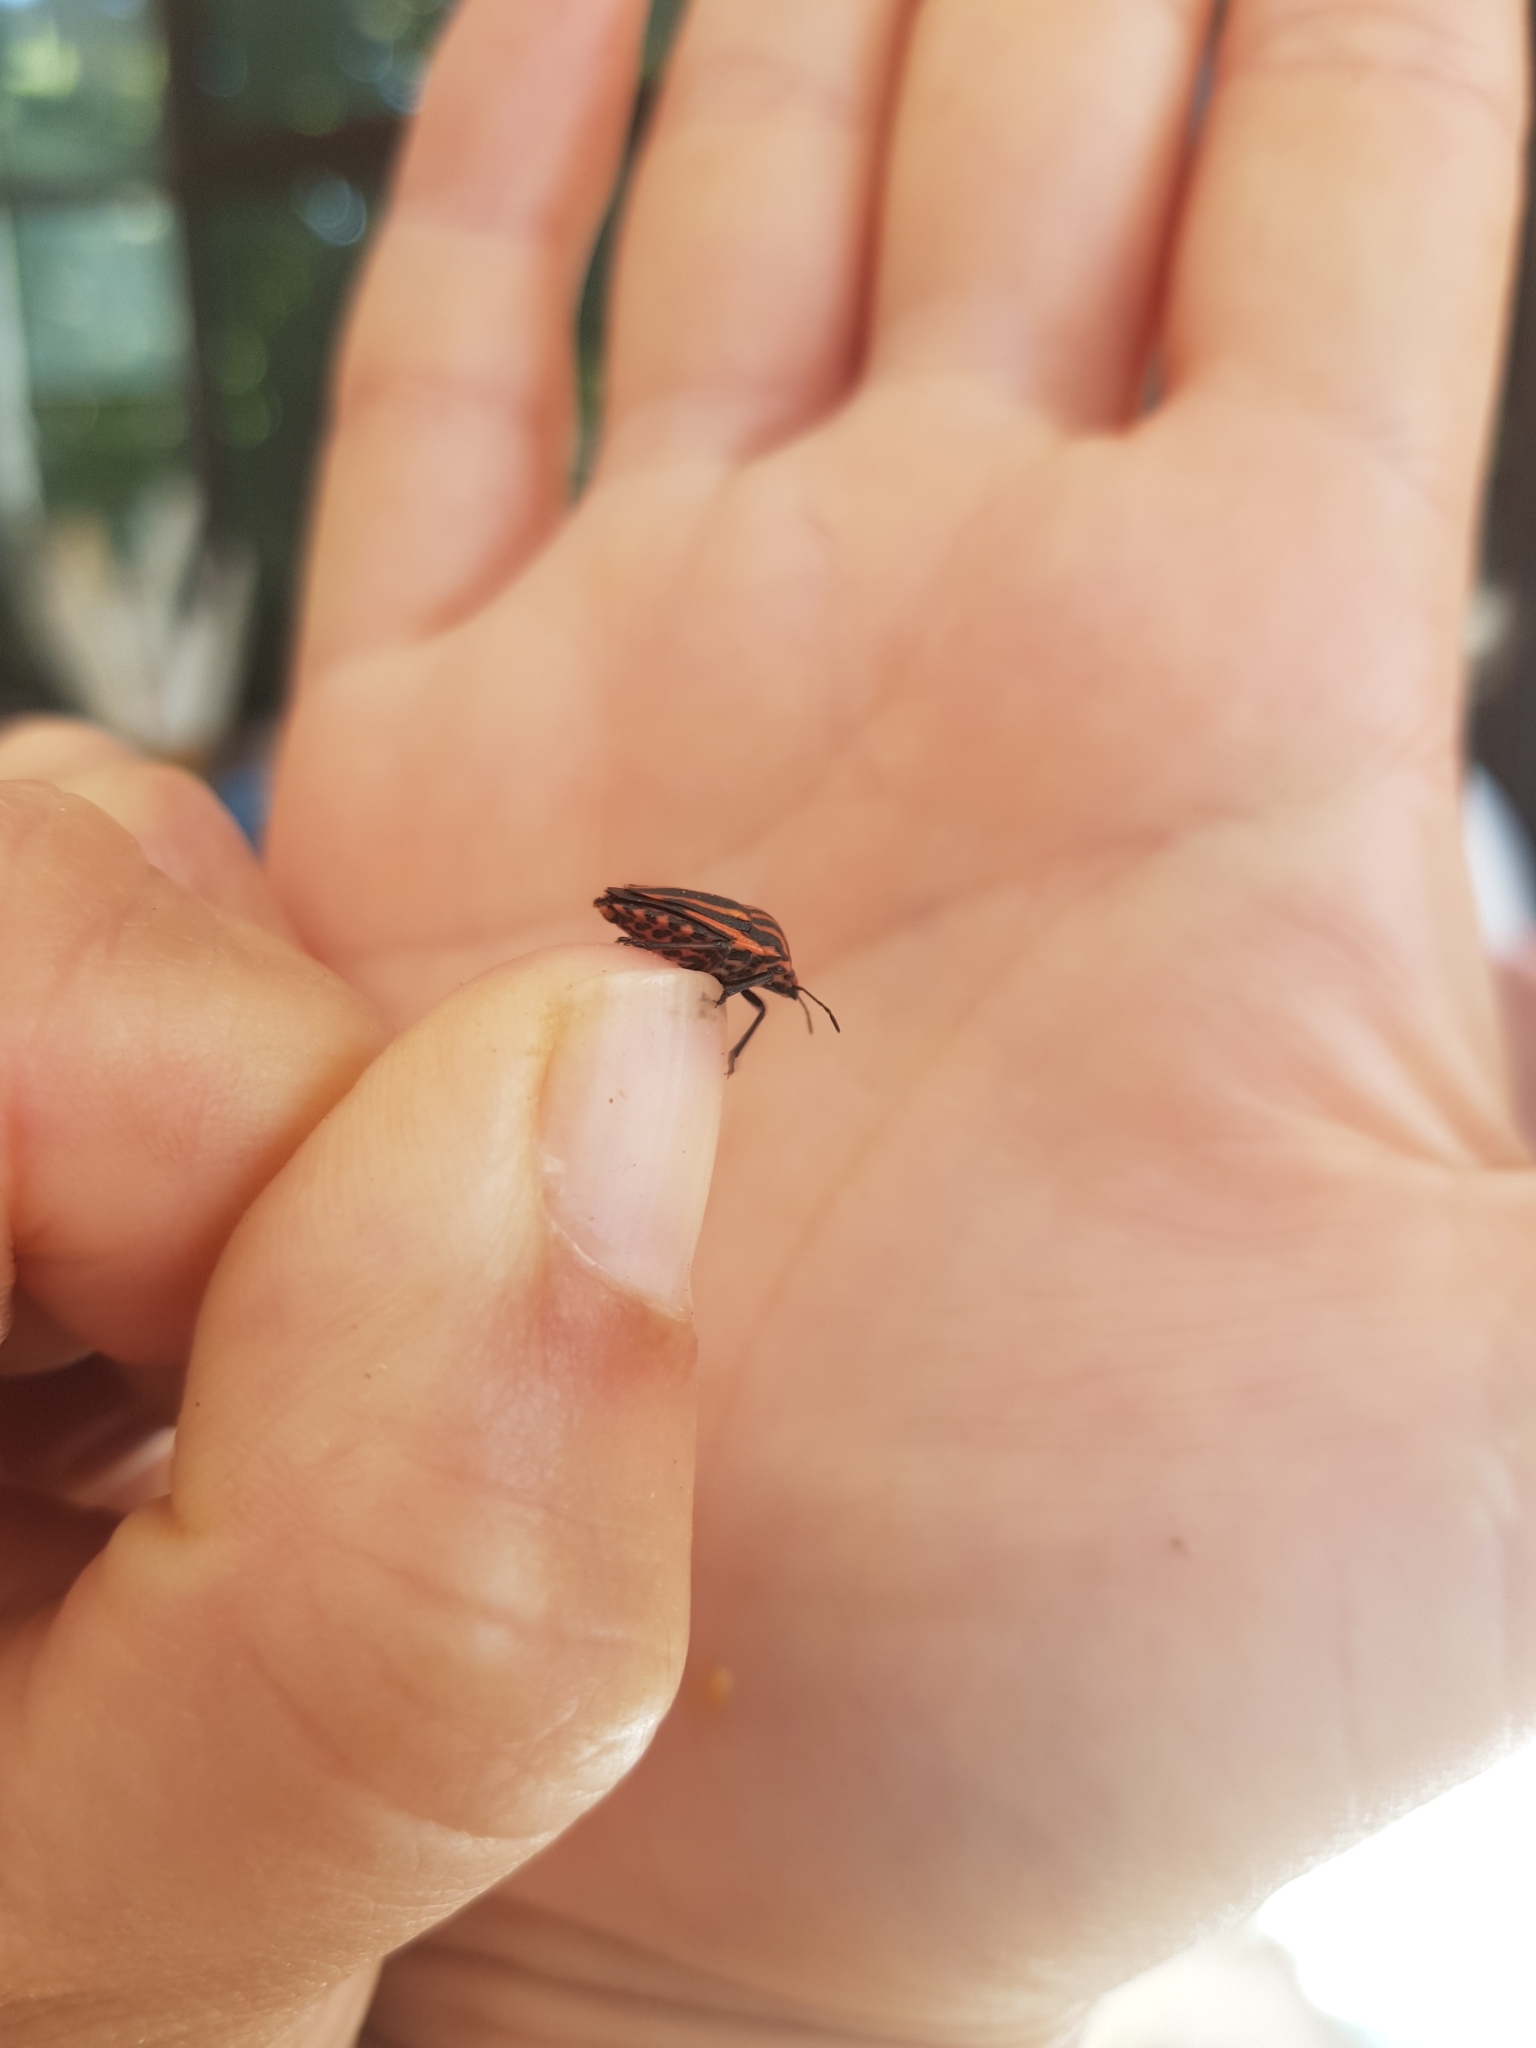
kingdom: Animalia
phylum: Arthropoda
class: Insecta
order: Hemiptera
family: Pentatomidae
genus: Graphosoma
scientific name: Graphosoma italicum
